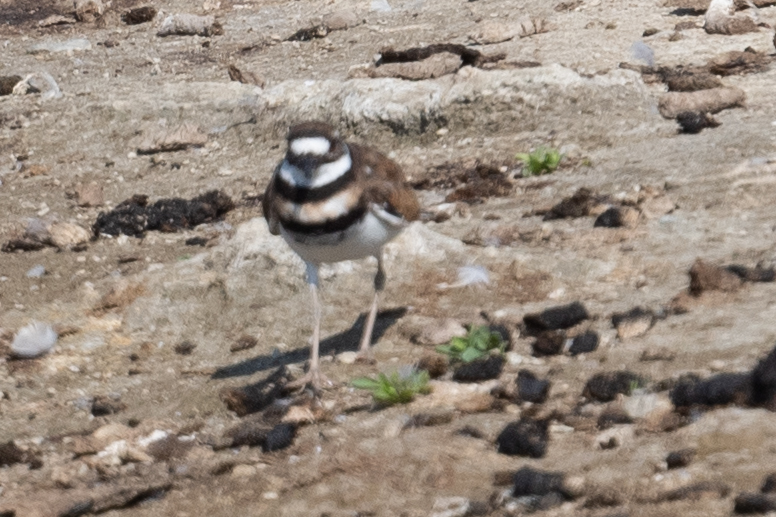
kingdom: Animalia
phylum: Chordata
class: Aves
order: Charadriiformes
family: Charadriidae
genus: Charadrius
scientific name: Charadrius vociferus
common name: Killdeer
